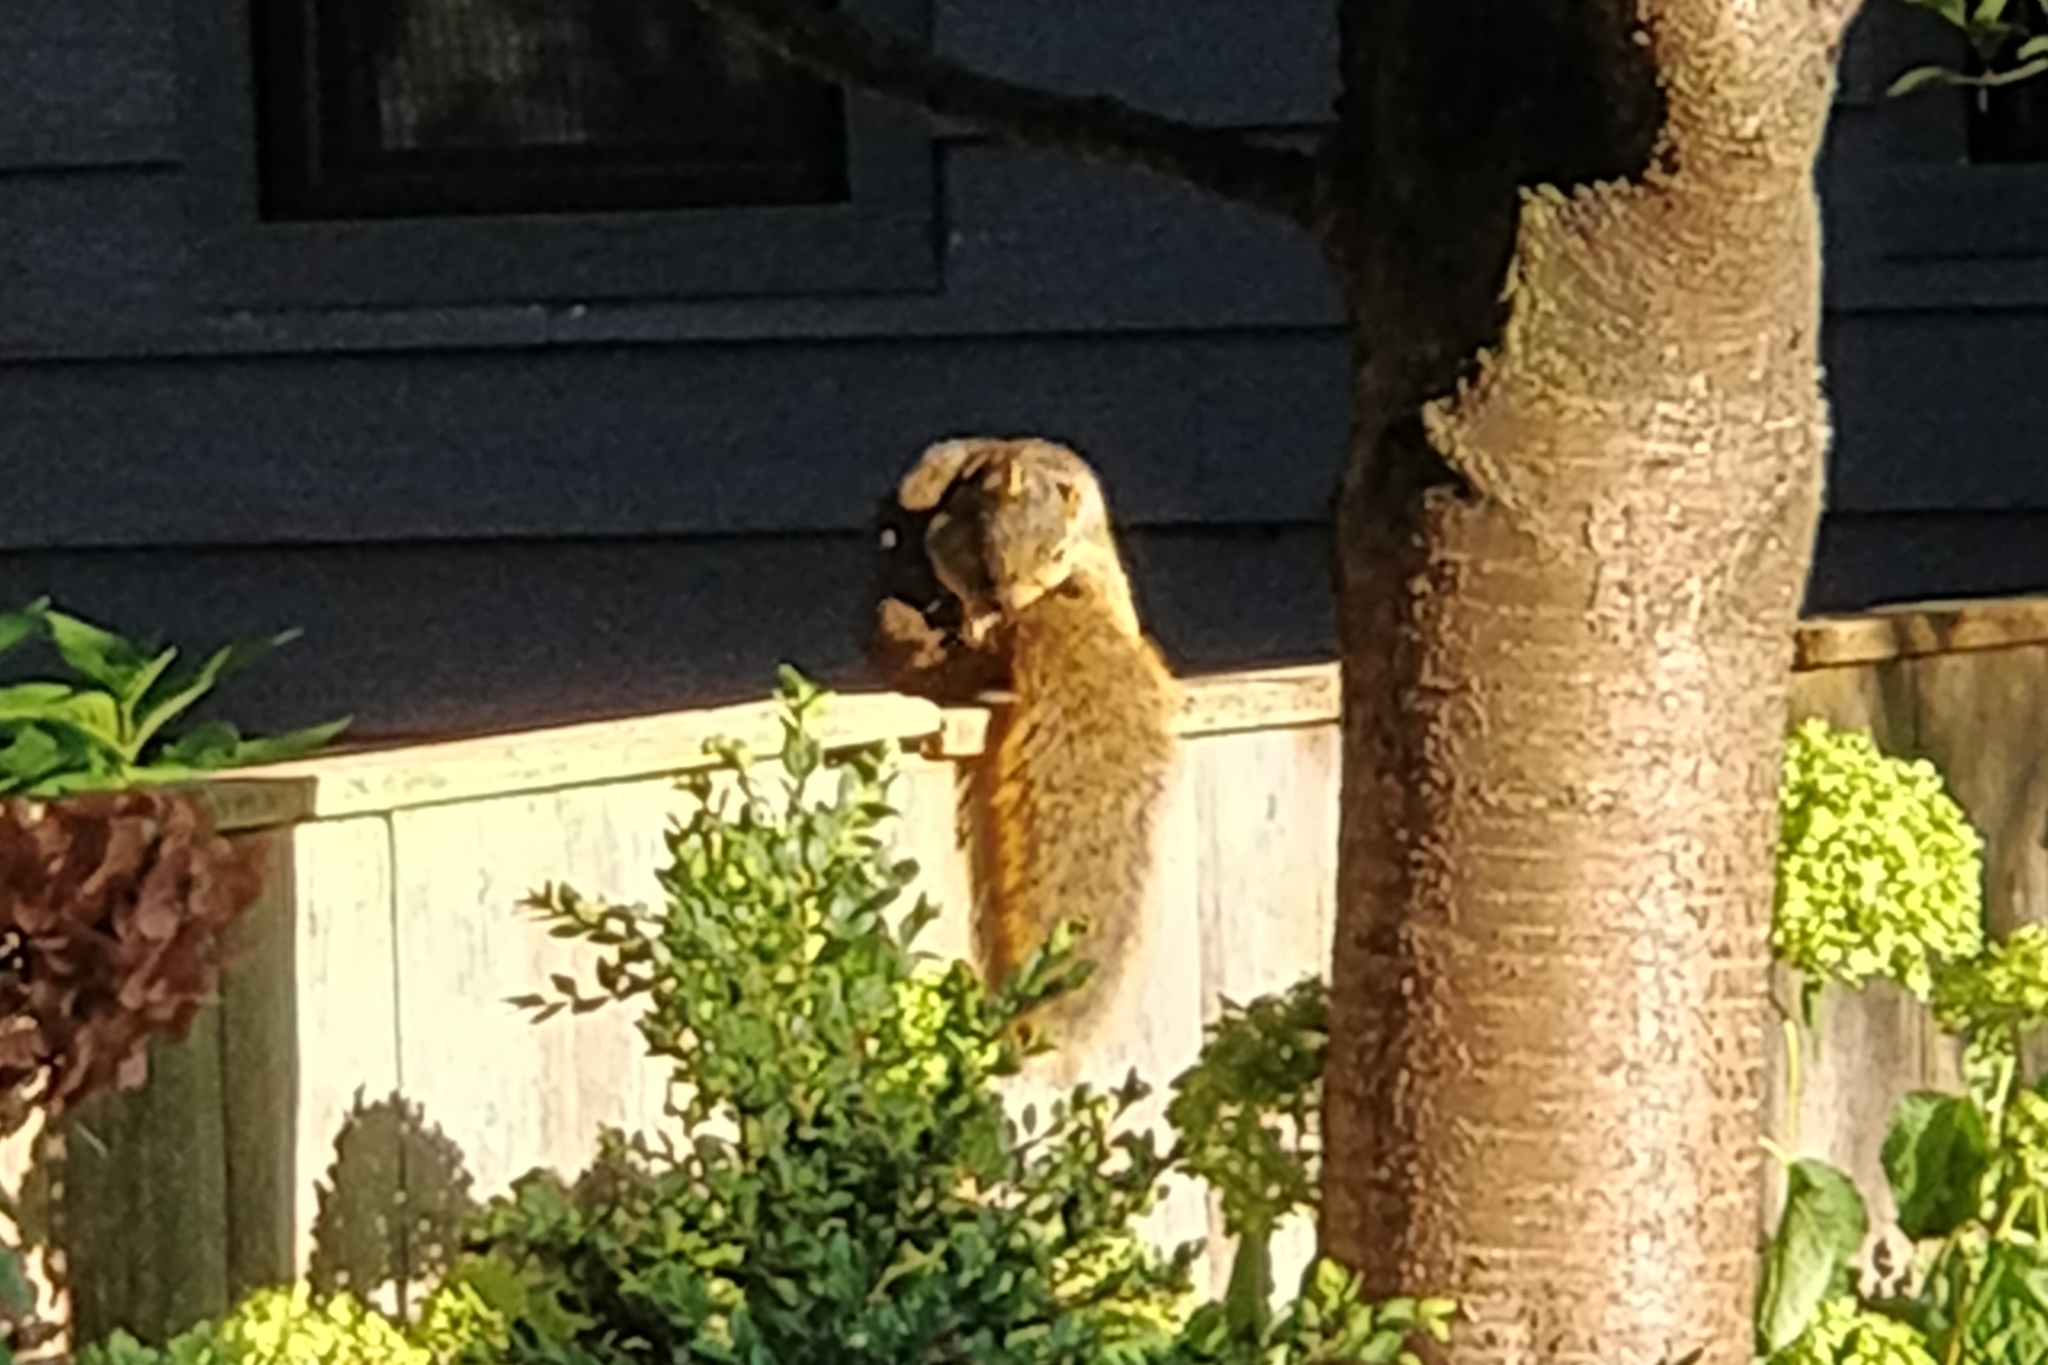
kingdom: Animalia
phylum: Chordata
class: Mammalia
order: Rodentia
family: Sciuridae
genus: Sciurus
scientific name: Sciurus niger
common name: Fox squirrel
